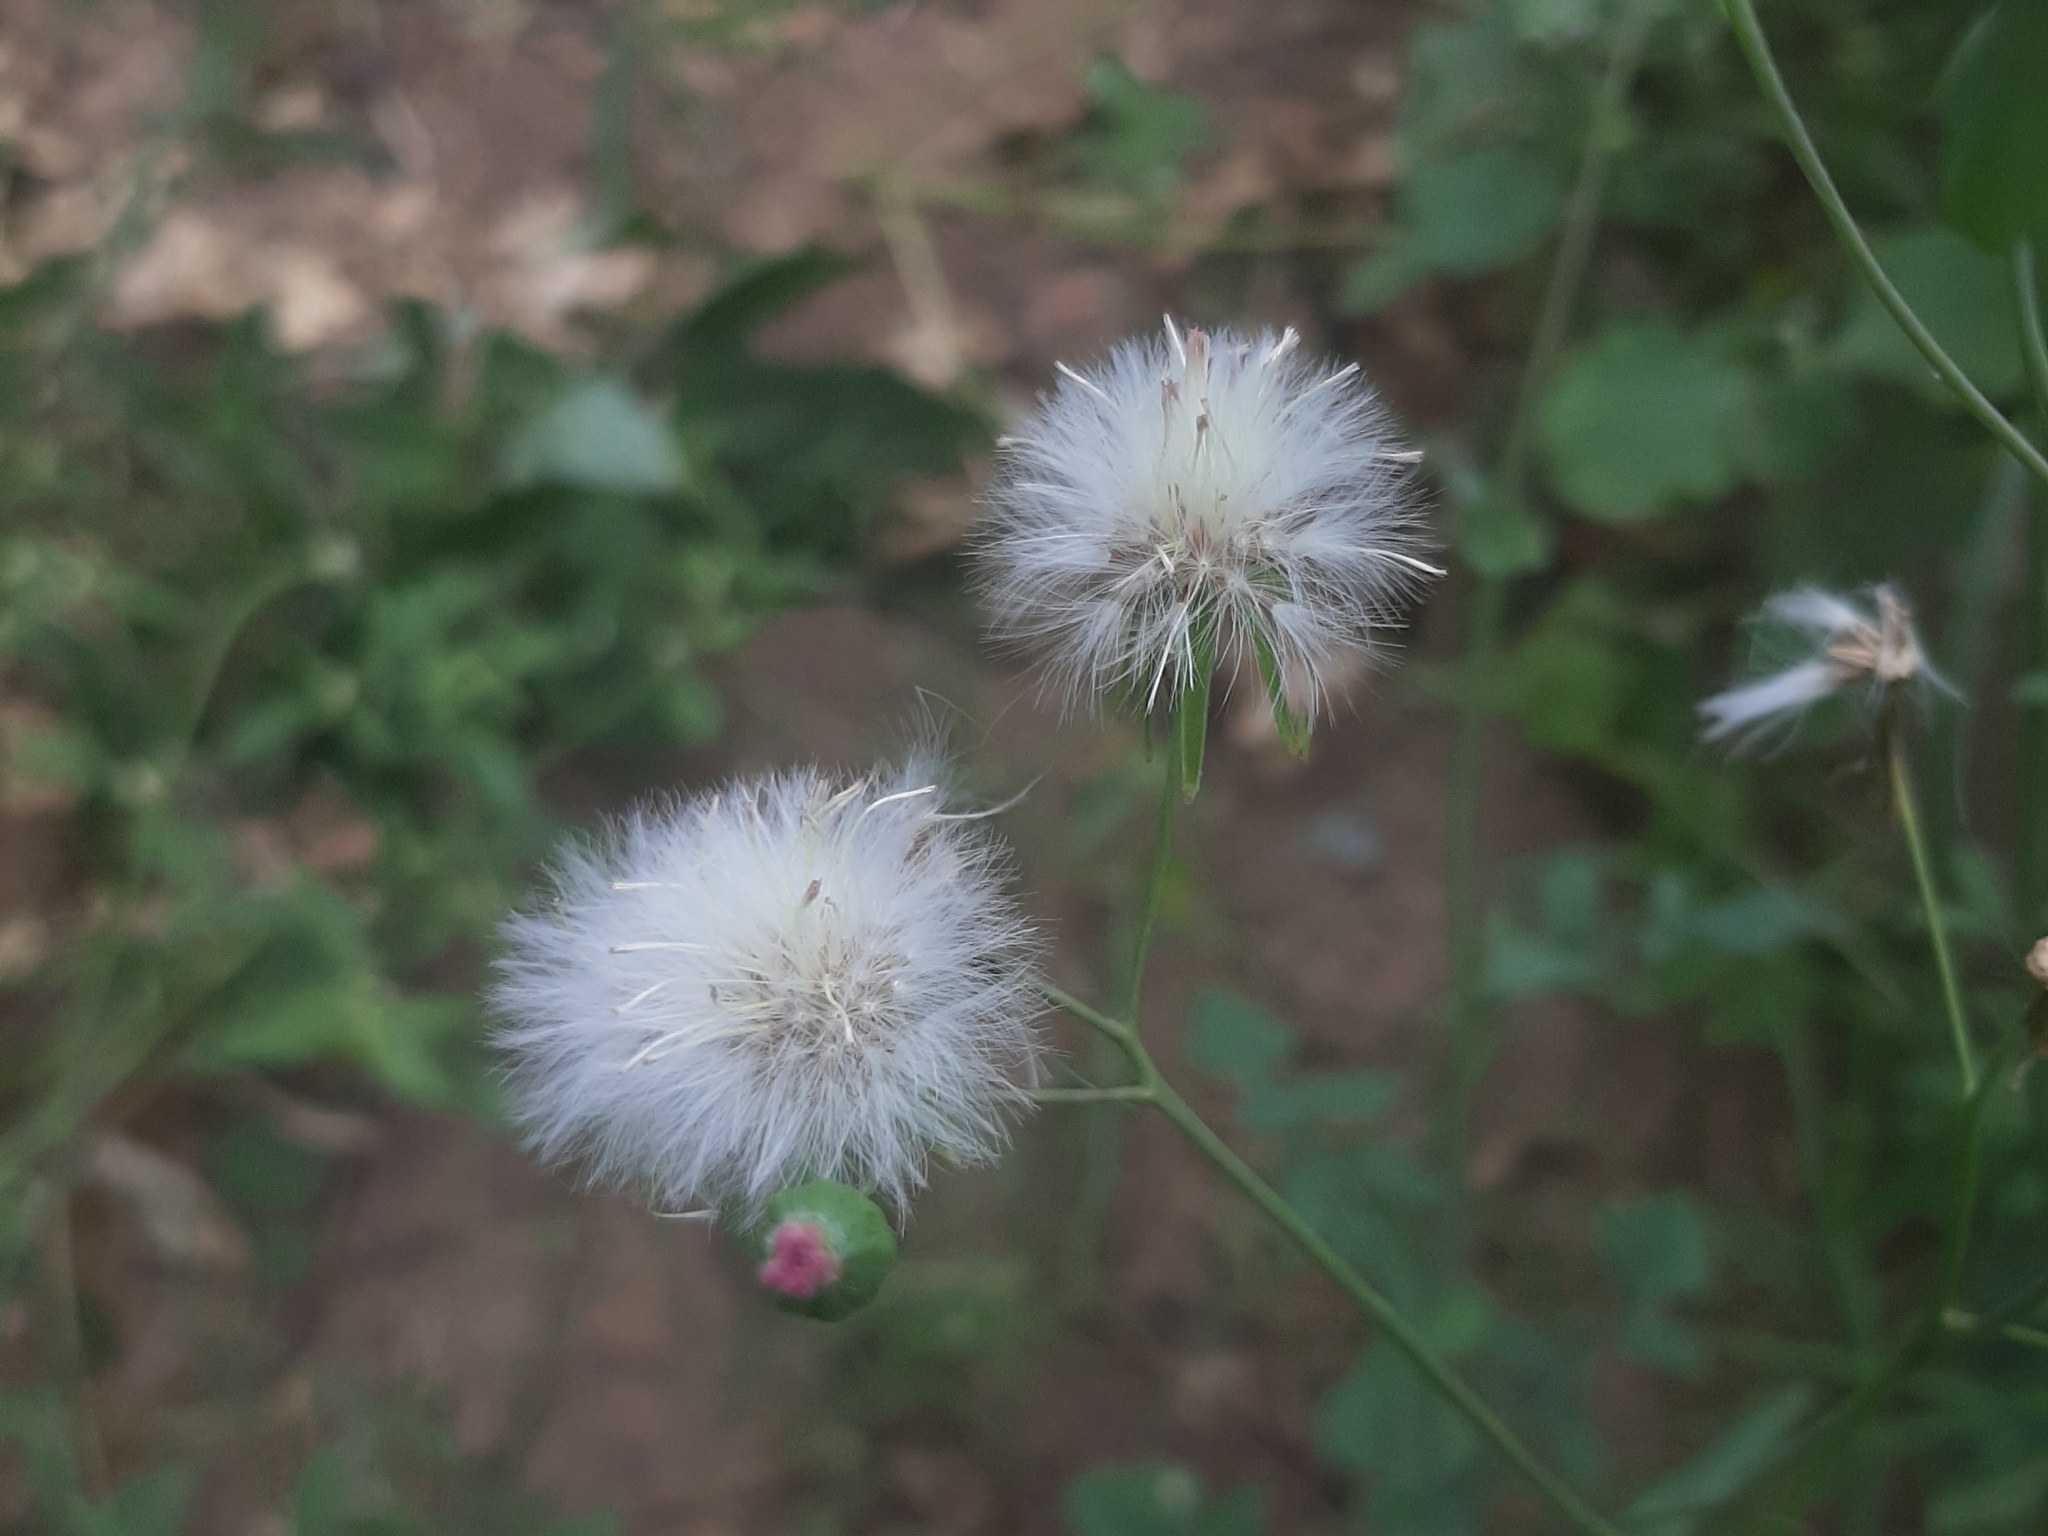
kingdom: Plantae
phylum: Tracheophyta
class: Magnoliopsida
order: Asterales
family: Asteraceae
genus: Emilia
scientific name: Emilia sonchifolia
